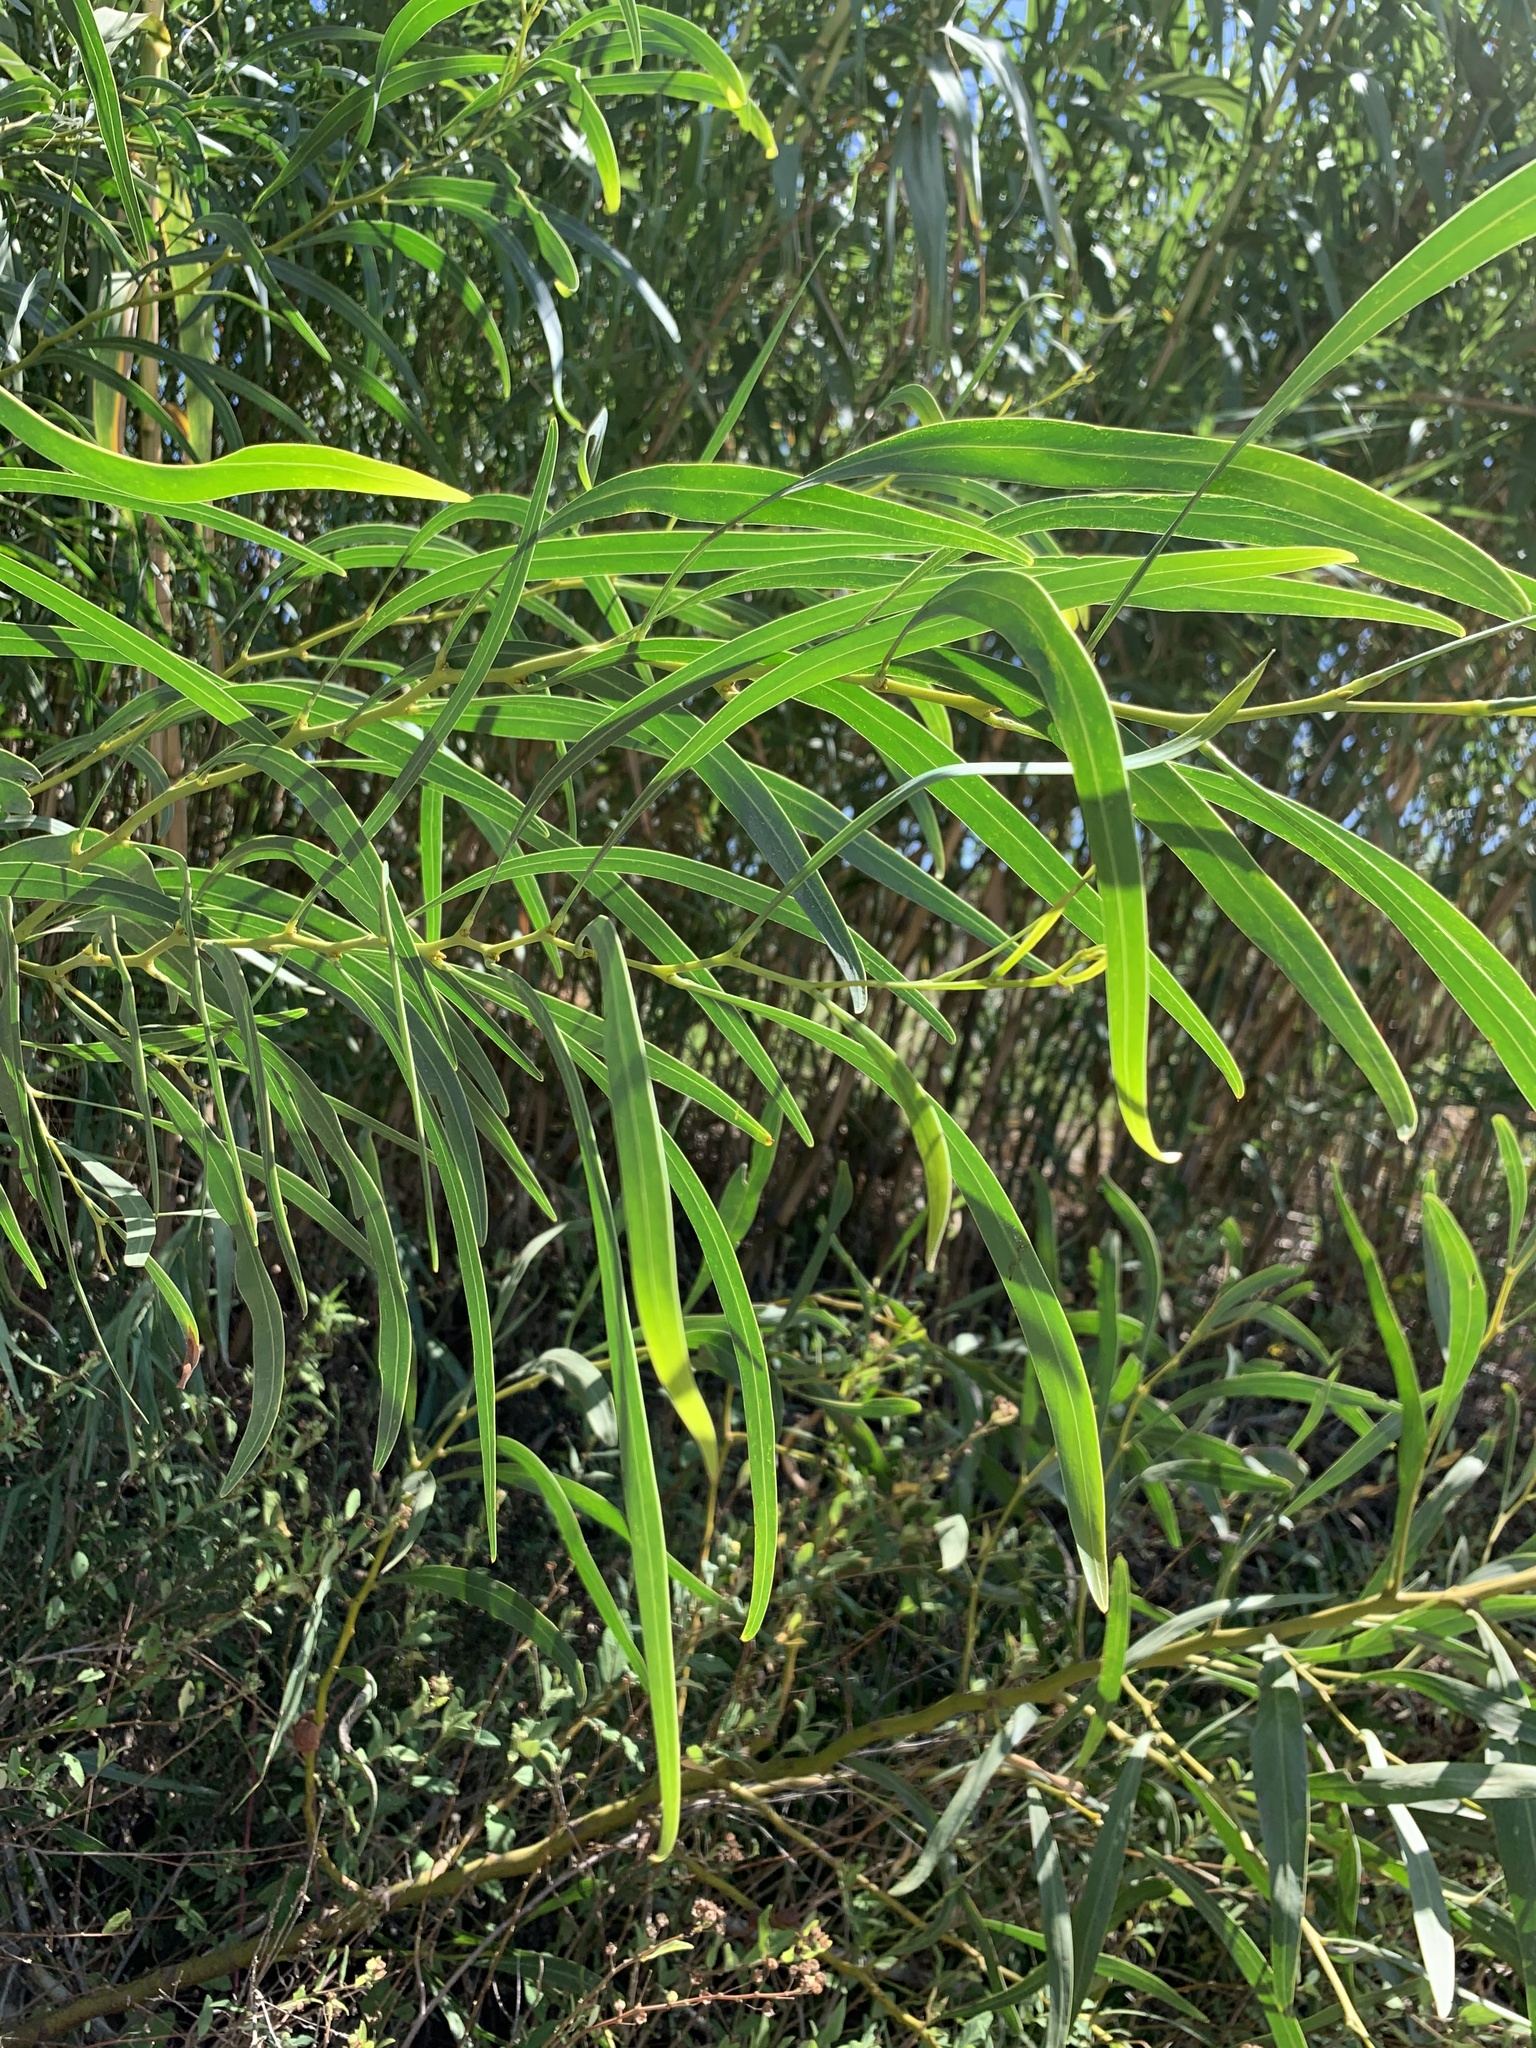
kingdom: Plantae
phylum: Tracheophyta
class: Magnoliopsida
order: Fabales
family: Fabaceae
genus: Acacia
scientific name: Acacia saligna
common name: Orange wattle
